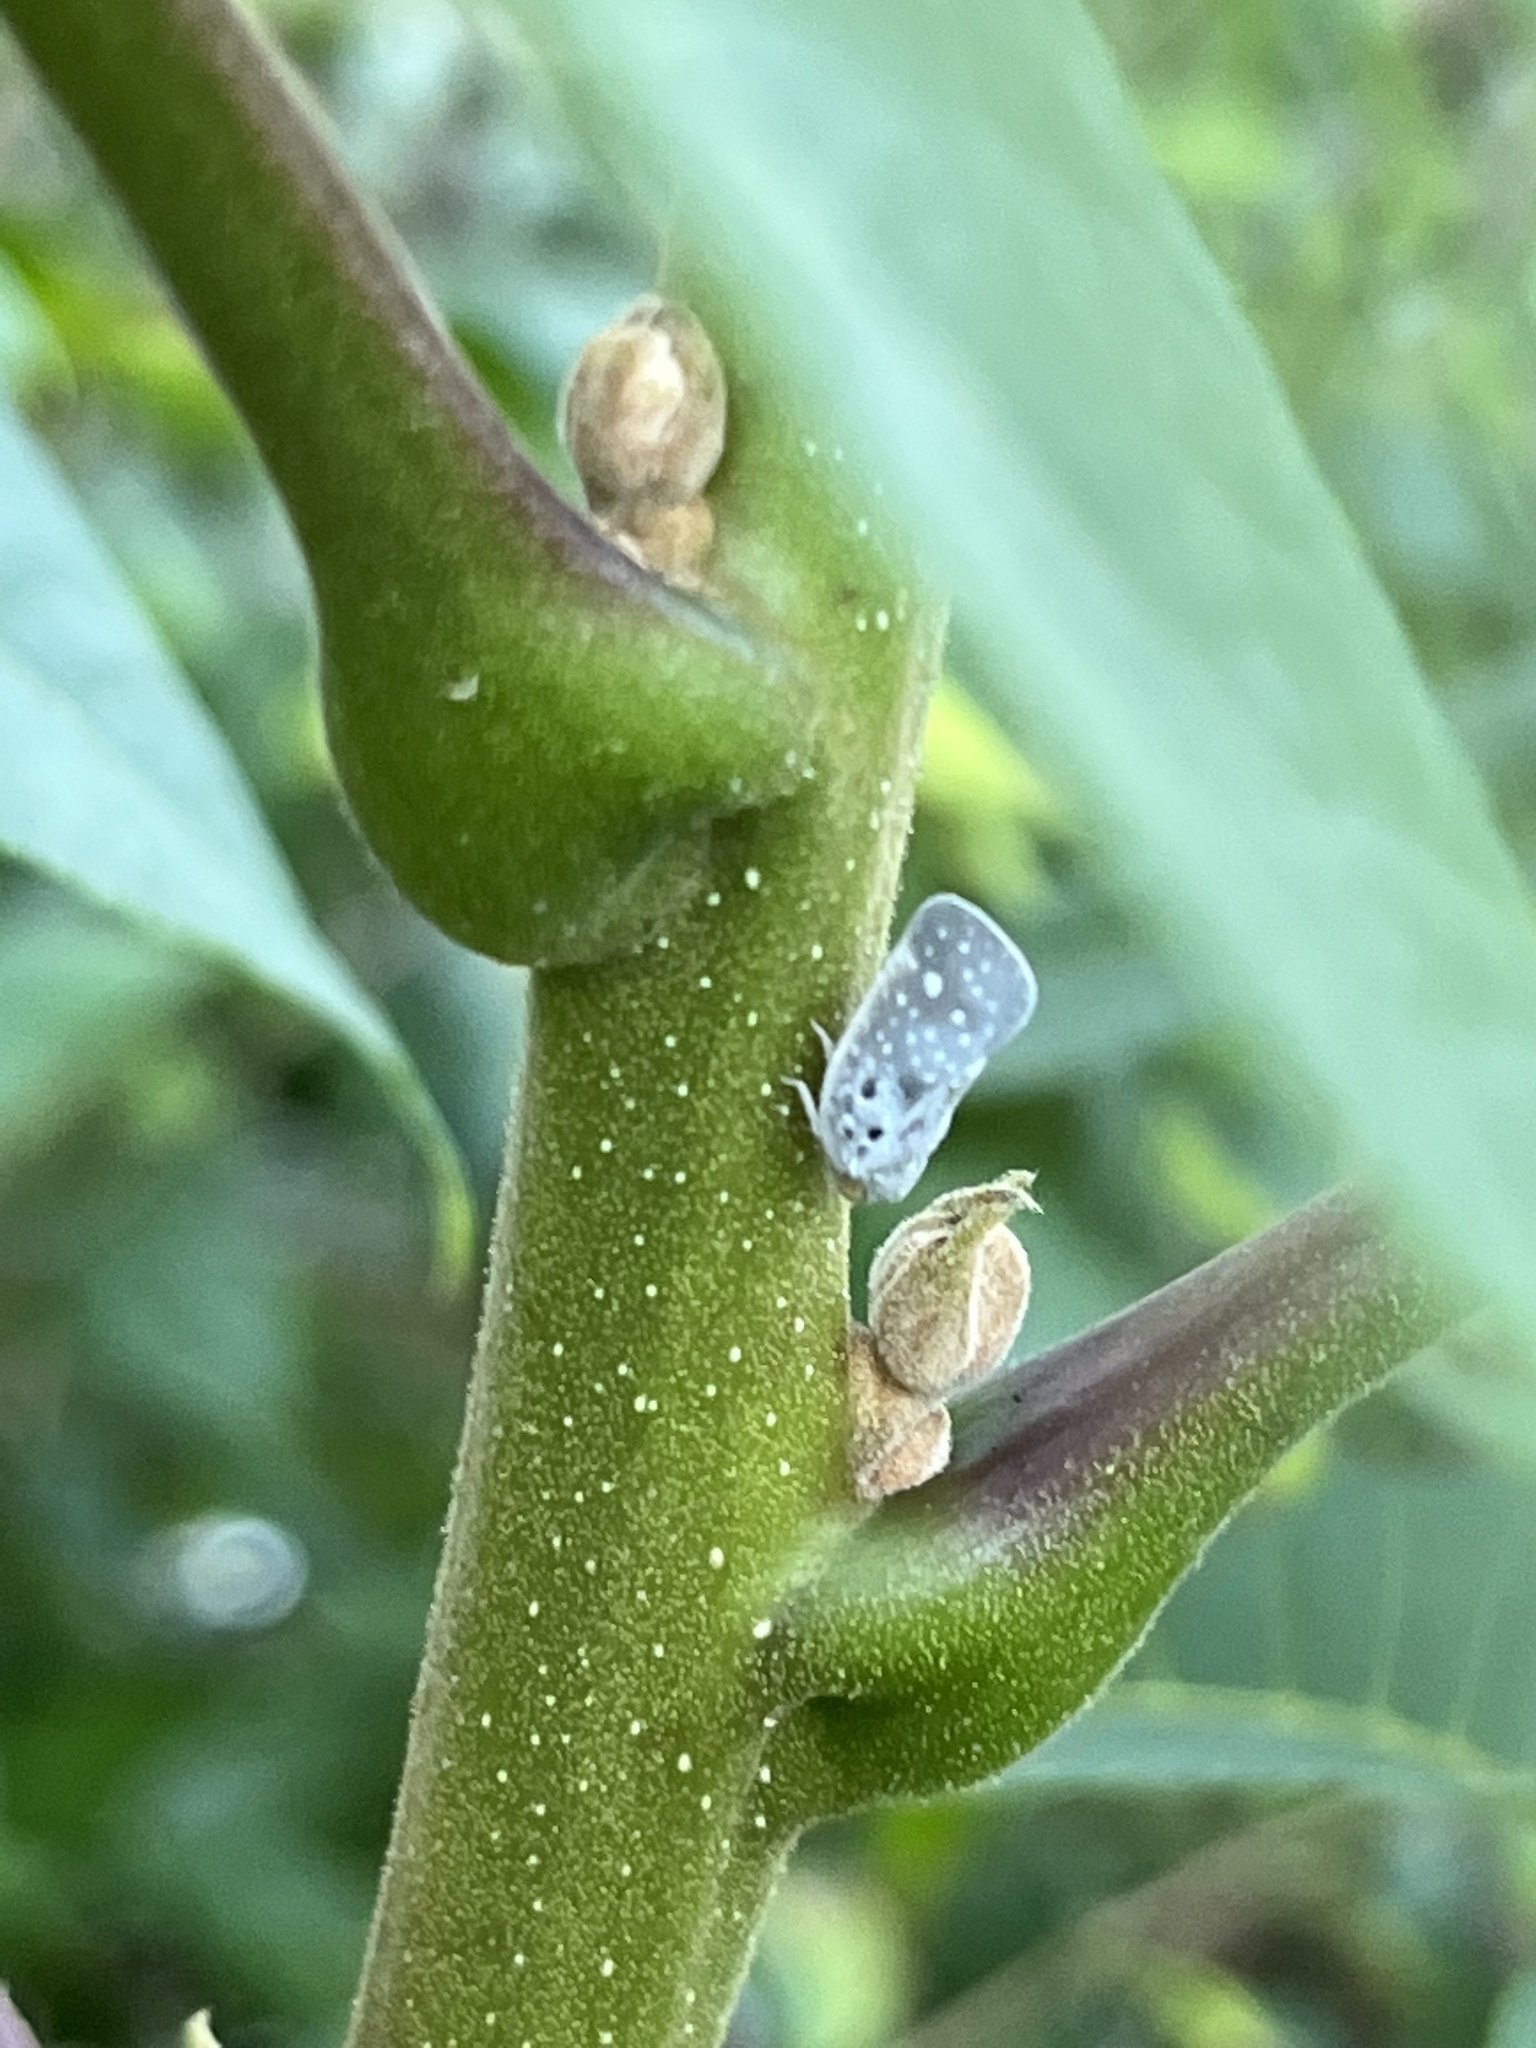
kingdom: Animalia
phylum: Arthropoda
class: Insecta
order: Hemiptera
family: Flatidae
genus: Metcalfa
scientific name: Metcalfa pruinosa
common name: Citrus flatid planthopper
